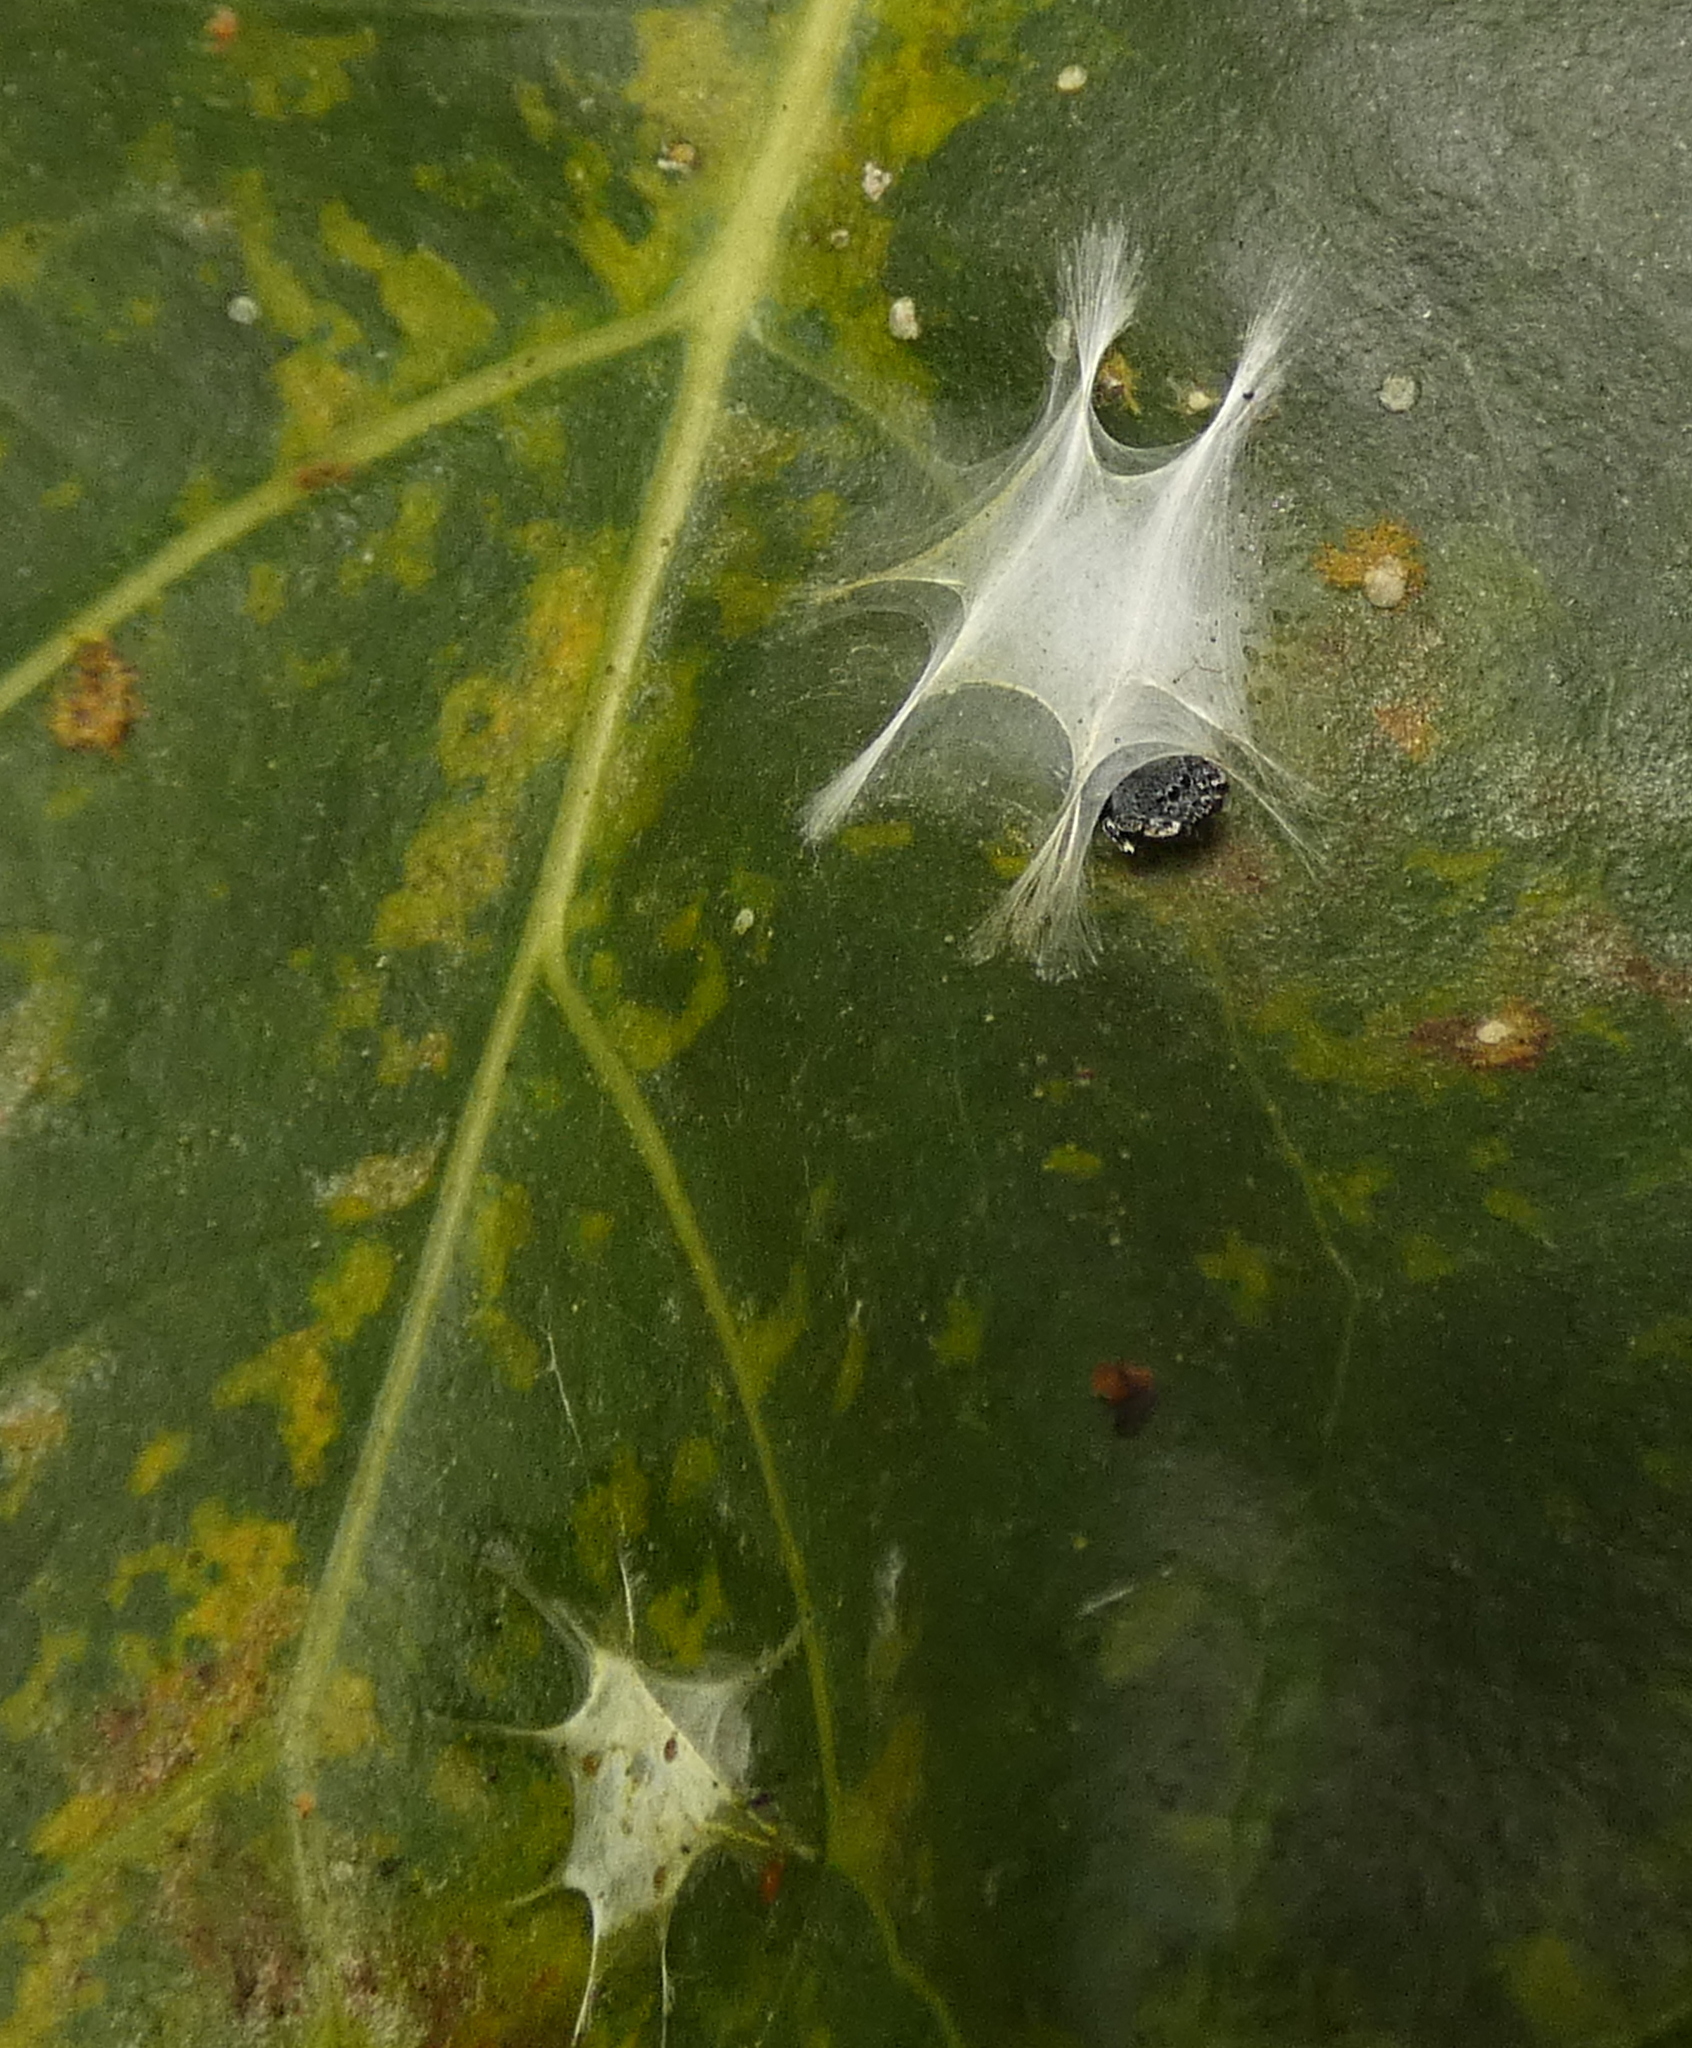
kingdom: Animalia
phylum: Arthropoda
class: Arachnida
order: Araneae
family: Salticidae
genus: Fritzia
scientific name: Fritzia muelleri
